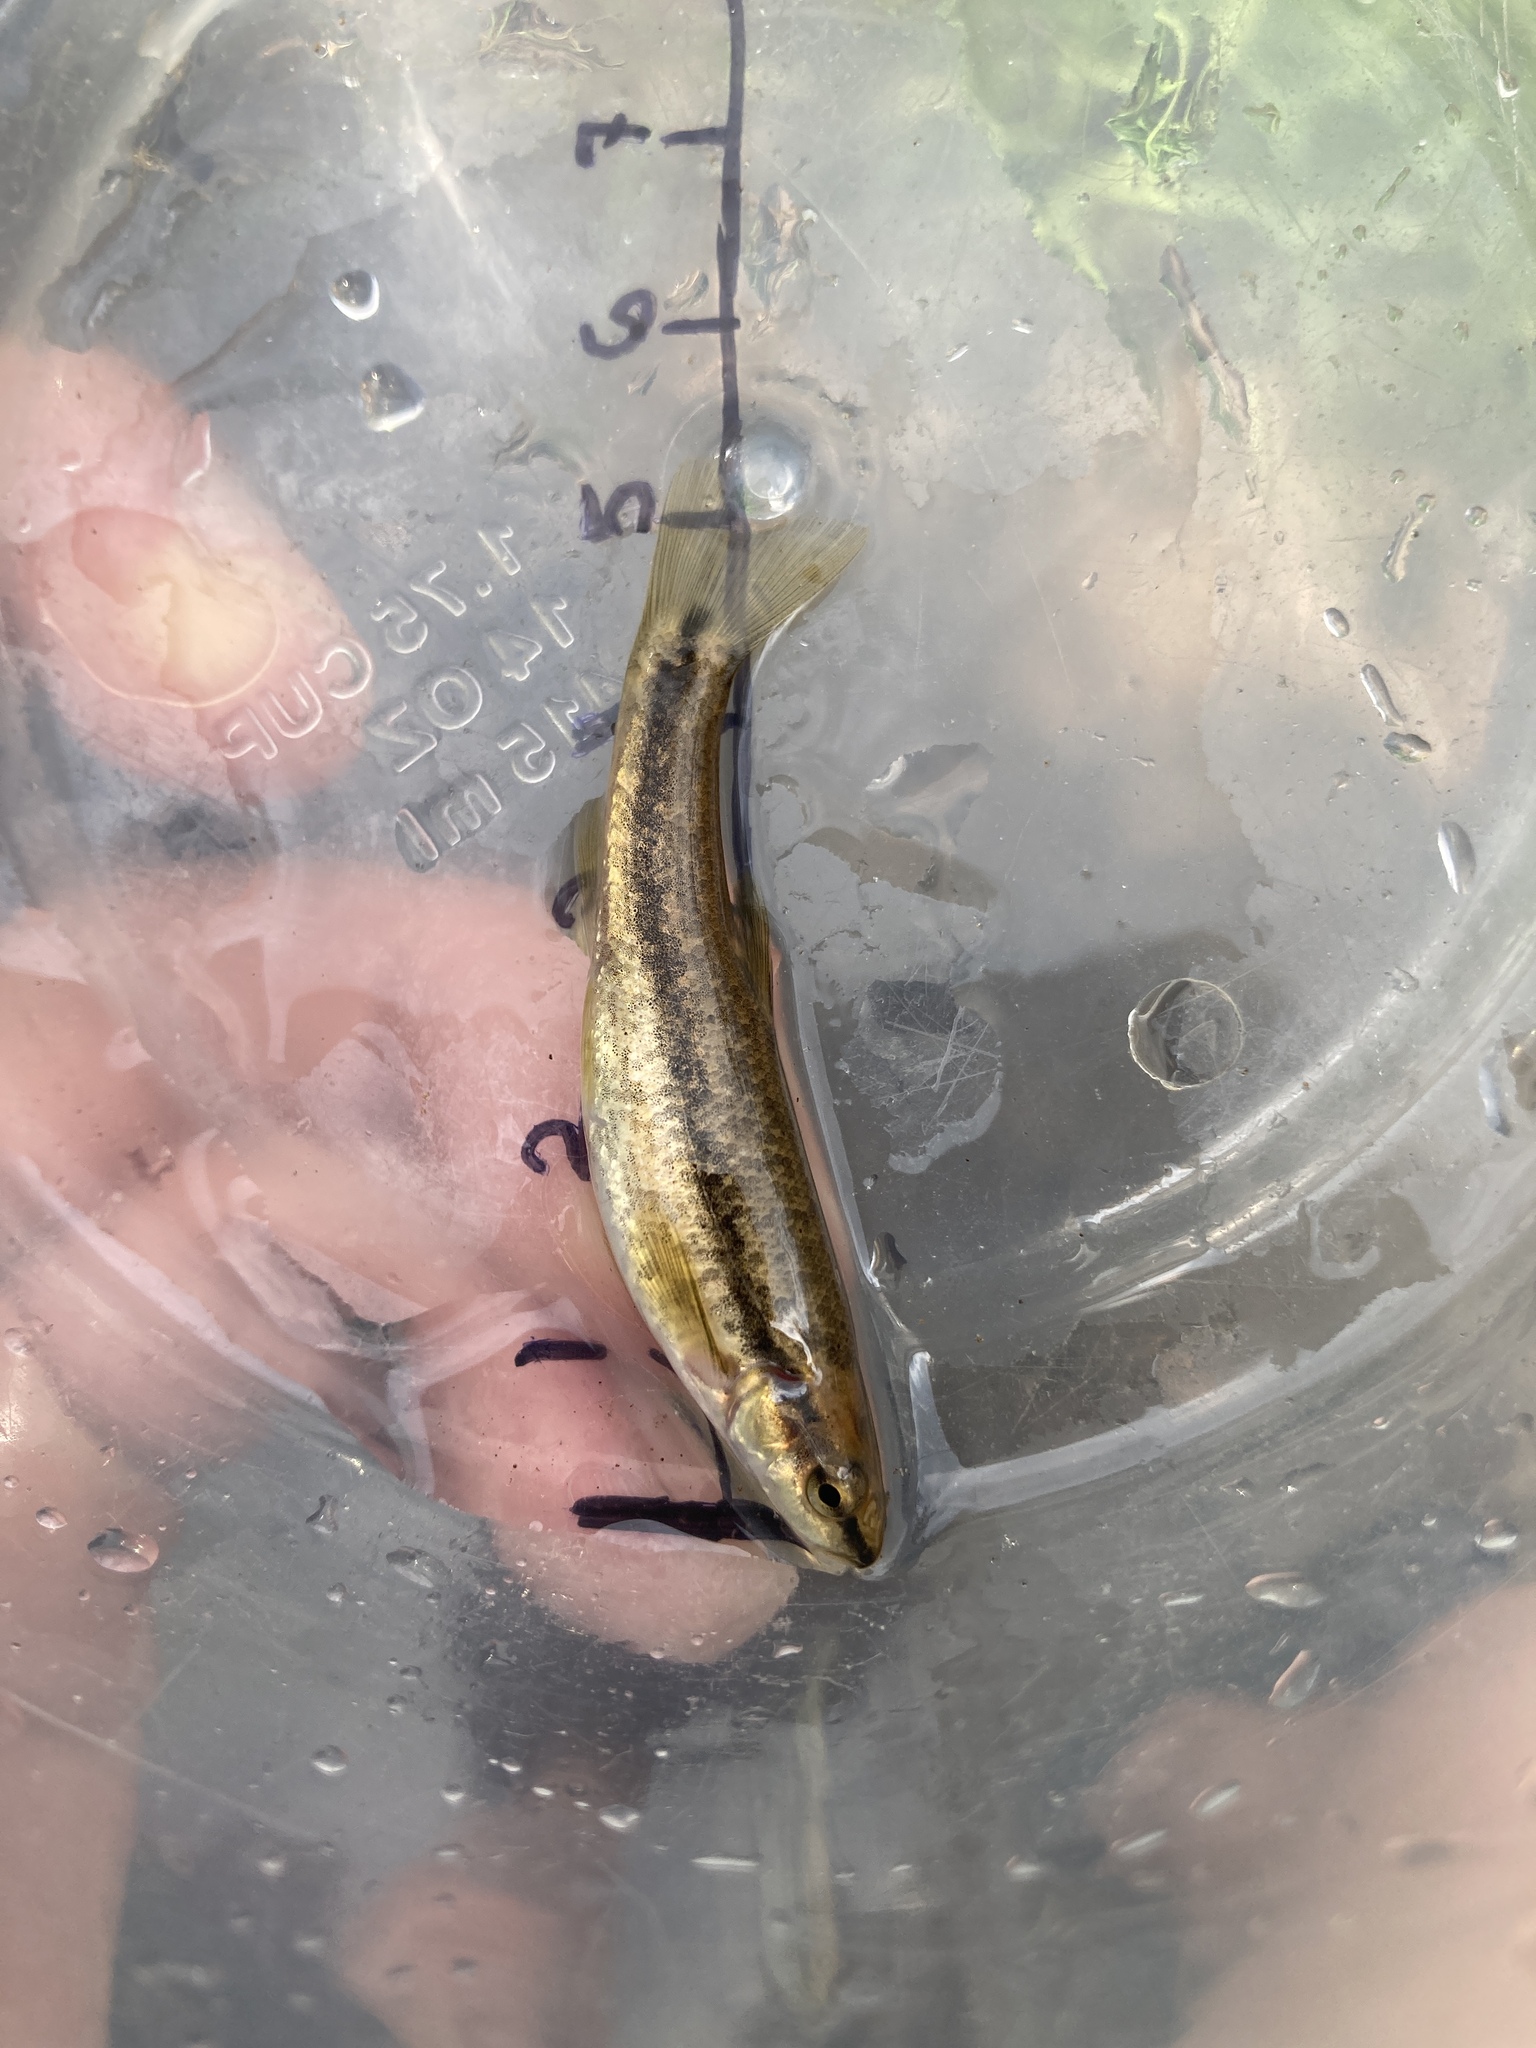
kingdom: Animalia
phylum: Chordata
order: Cypriniformes
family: Cyprinidae
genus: Rhinichthys
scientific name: Rhinichthys obtusus
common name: Western blacknose dace
